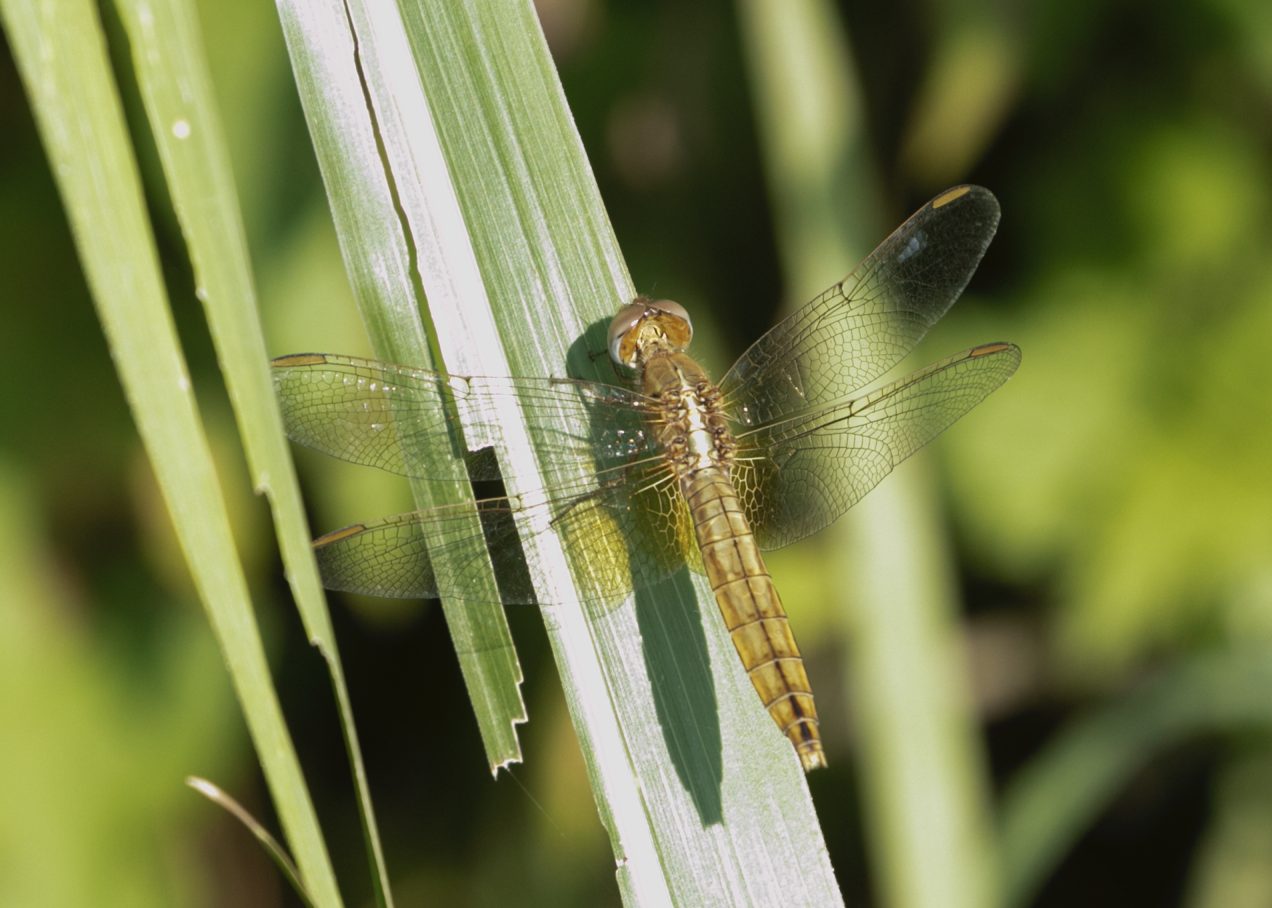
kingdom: Animalia
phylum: Arthropoda
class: Insecta
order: Odonata
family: Libellulidae
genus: Crocothemis
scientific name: Crocothemis erythraea
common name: Scarlet dragonfly
